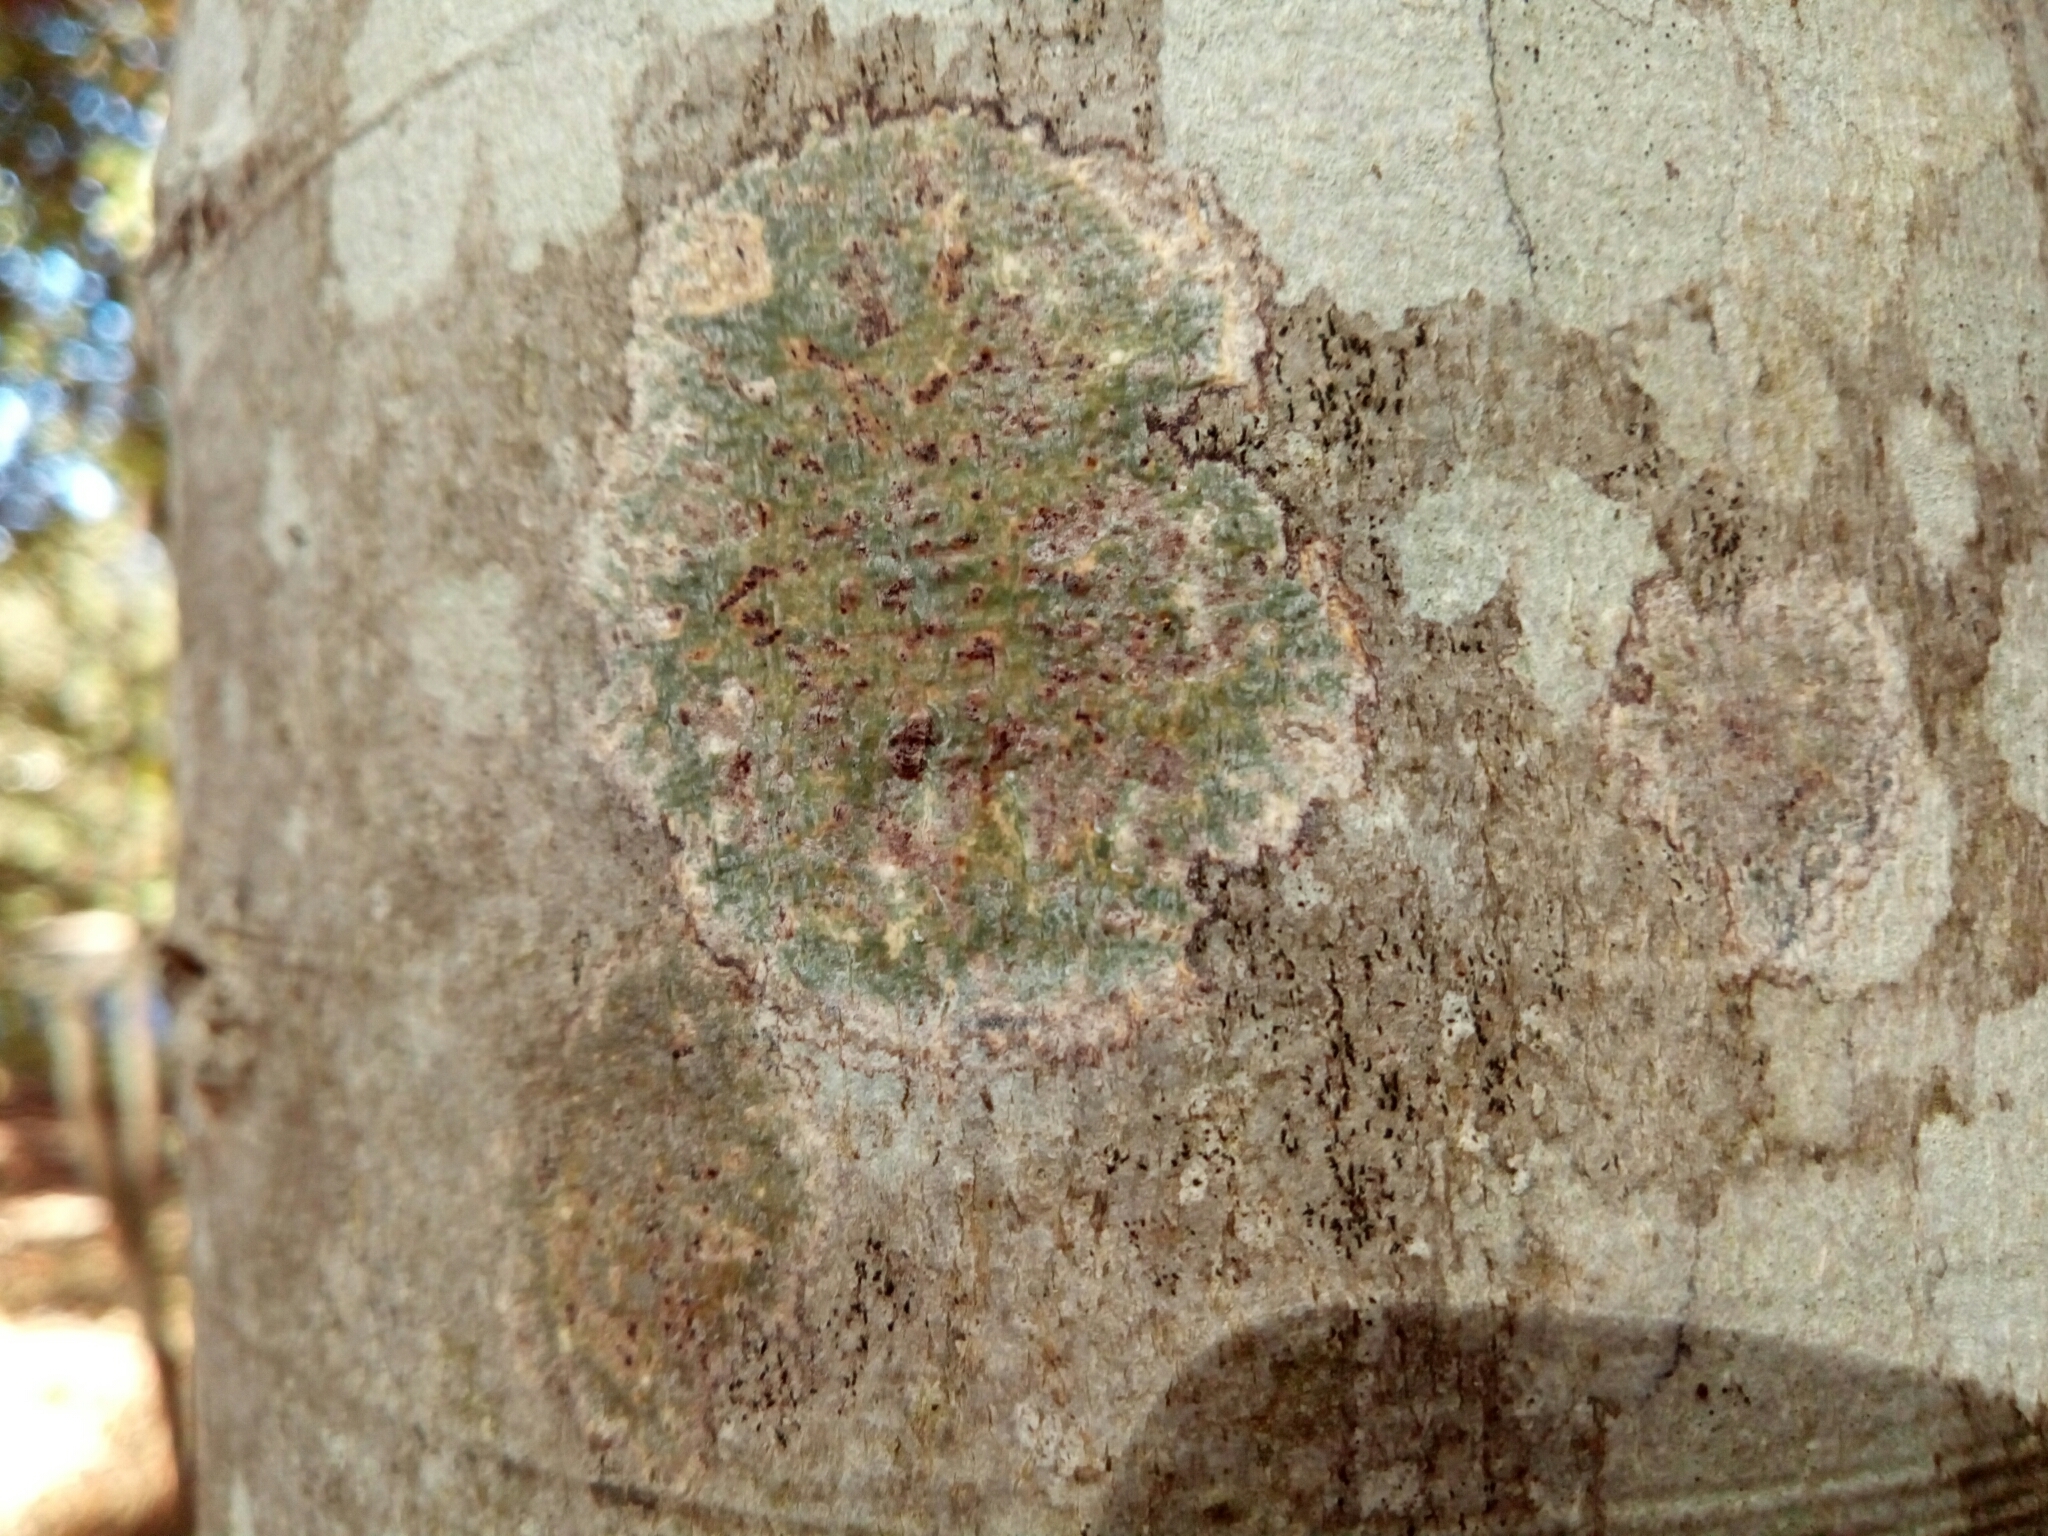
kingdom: Fungi
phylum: Ascomycota
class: Dothideomycetes
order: Trypetheliales
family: Trypetheliaceae
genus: Viridothelium
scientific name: Viridothelium virens
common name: Speckled blister lichen
